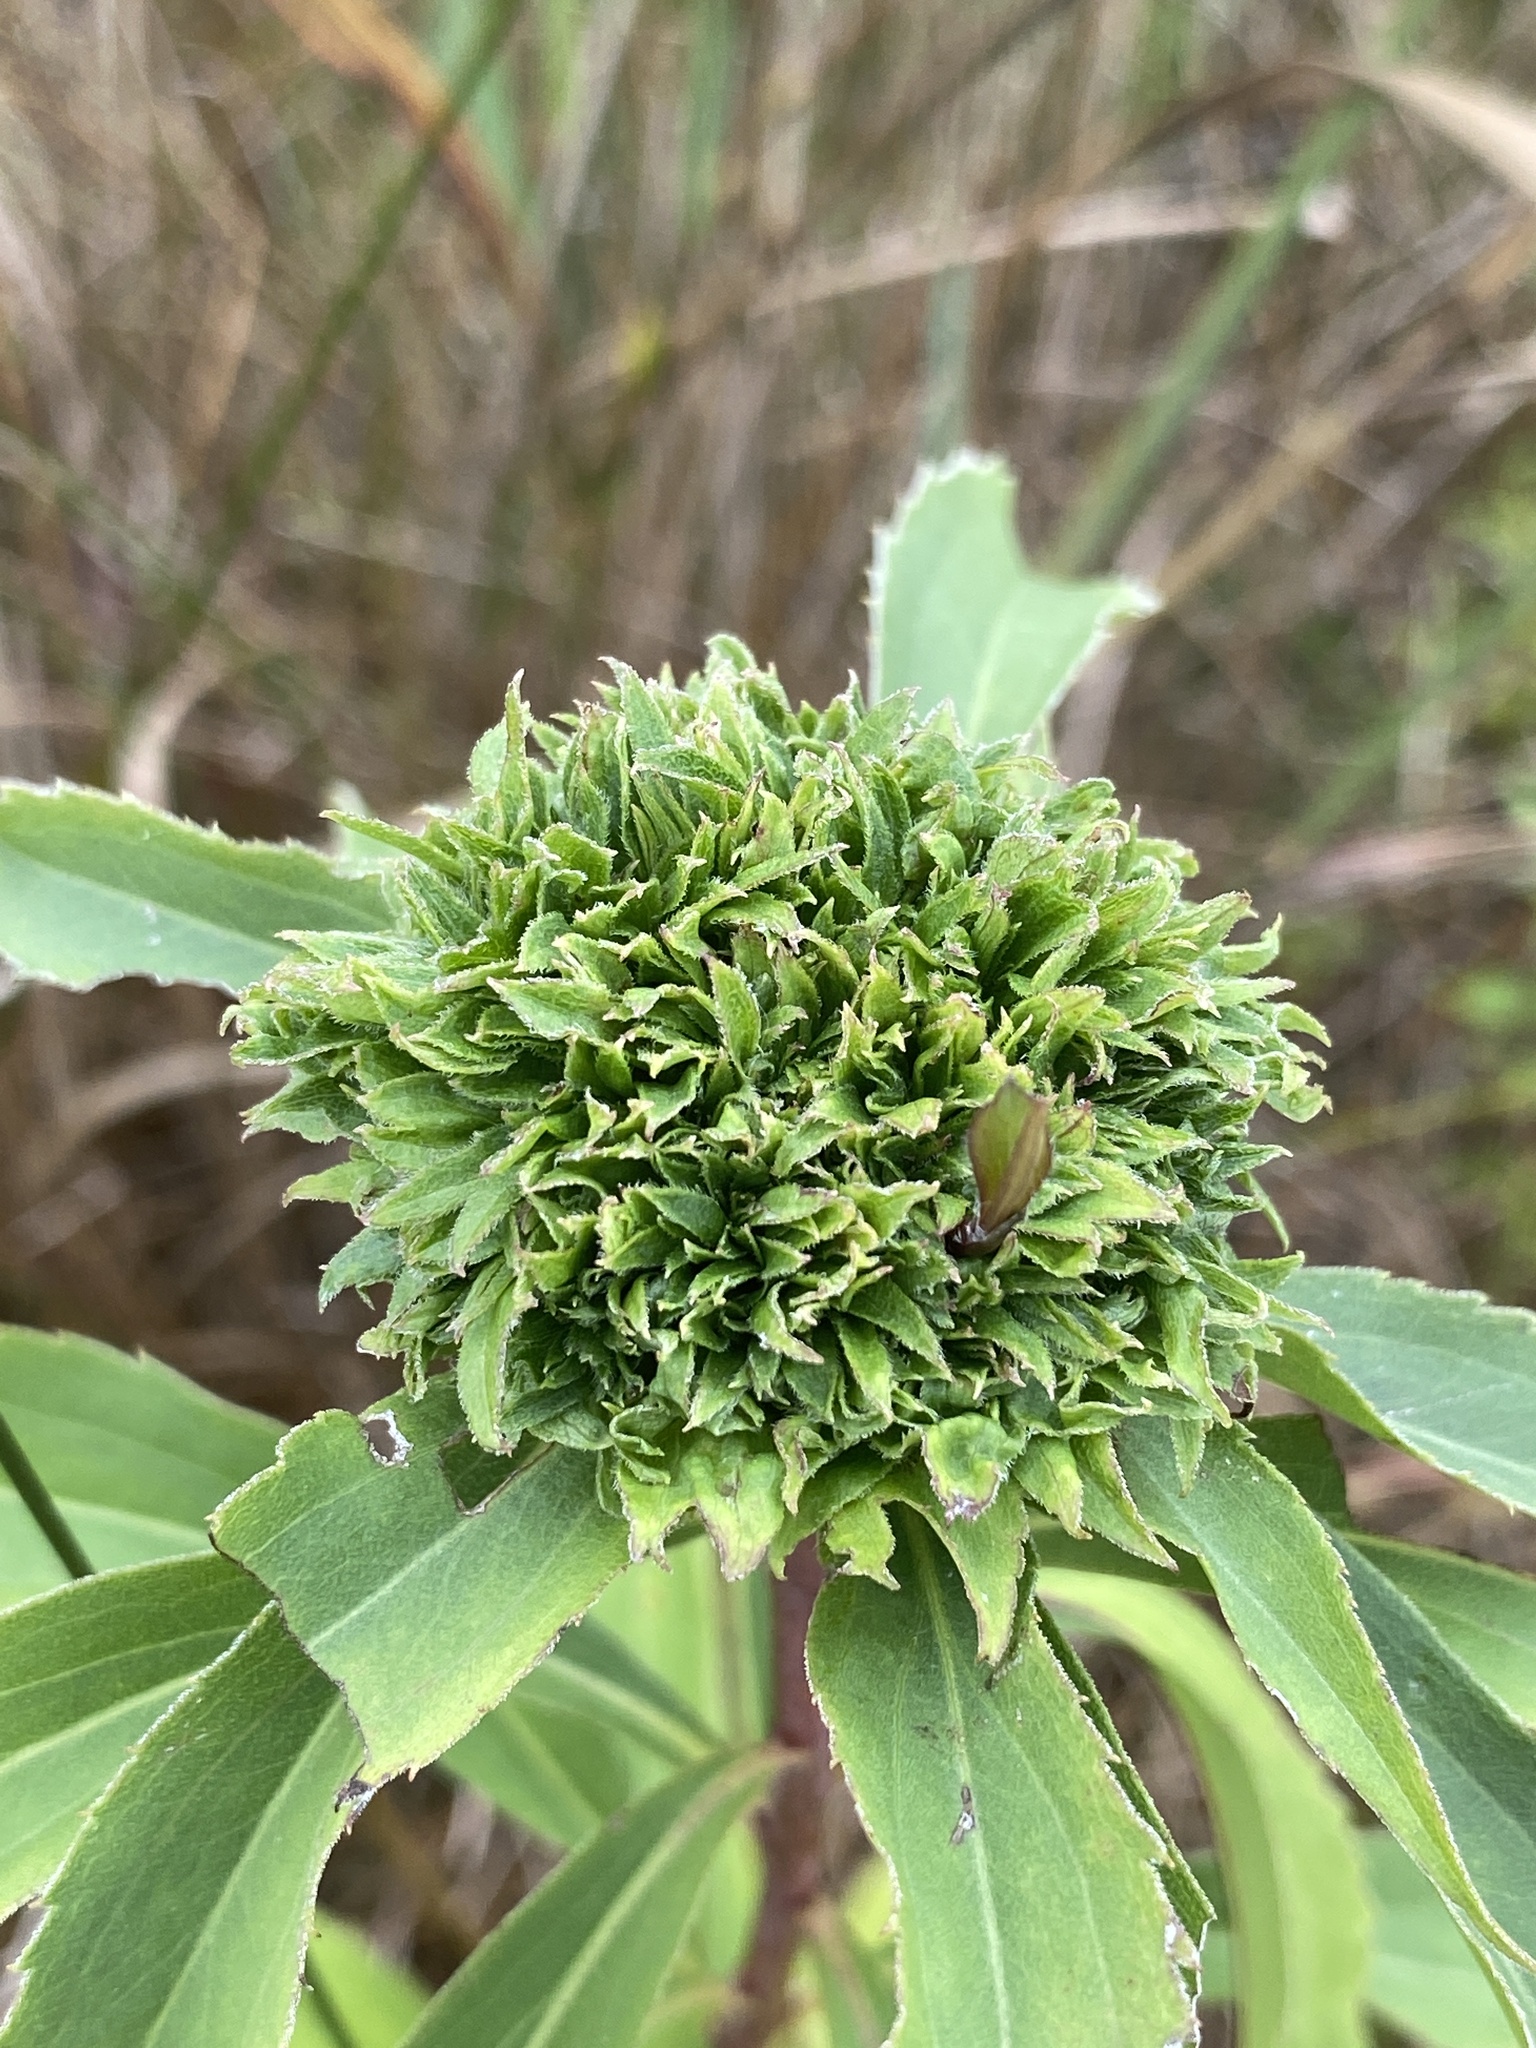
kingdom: Animalia
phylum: Arthropoda
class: Insecta
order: Diptera
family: Cecidomyiidae
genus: Rhopalomyia
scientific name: Rhopalomyia capitata
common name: Giant goldenrod bunch gall midge
